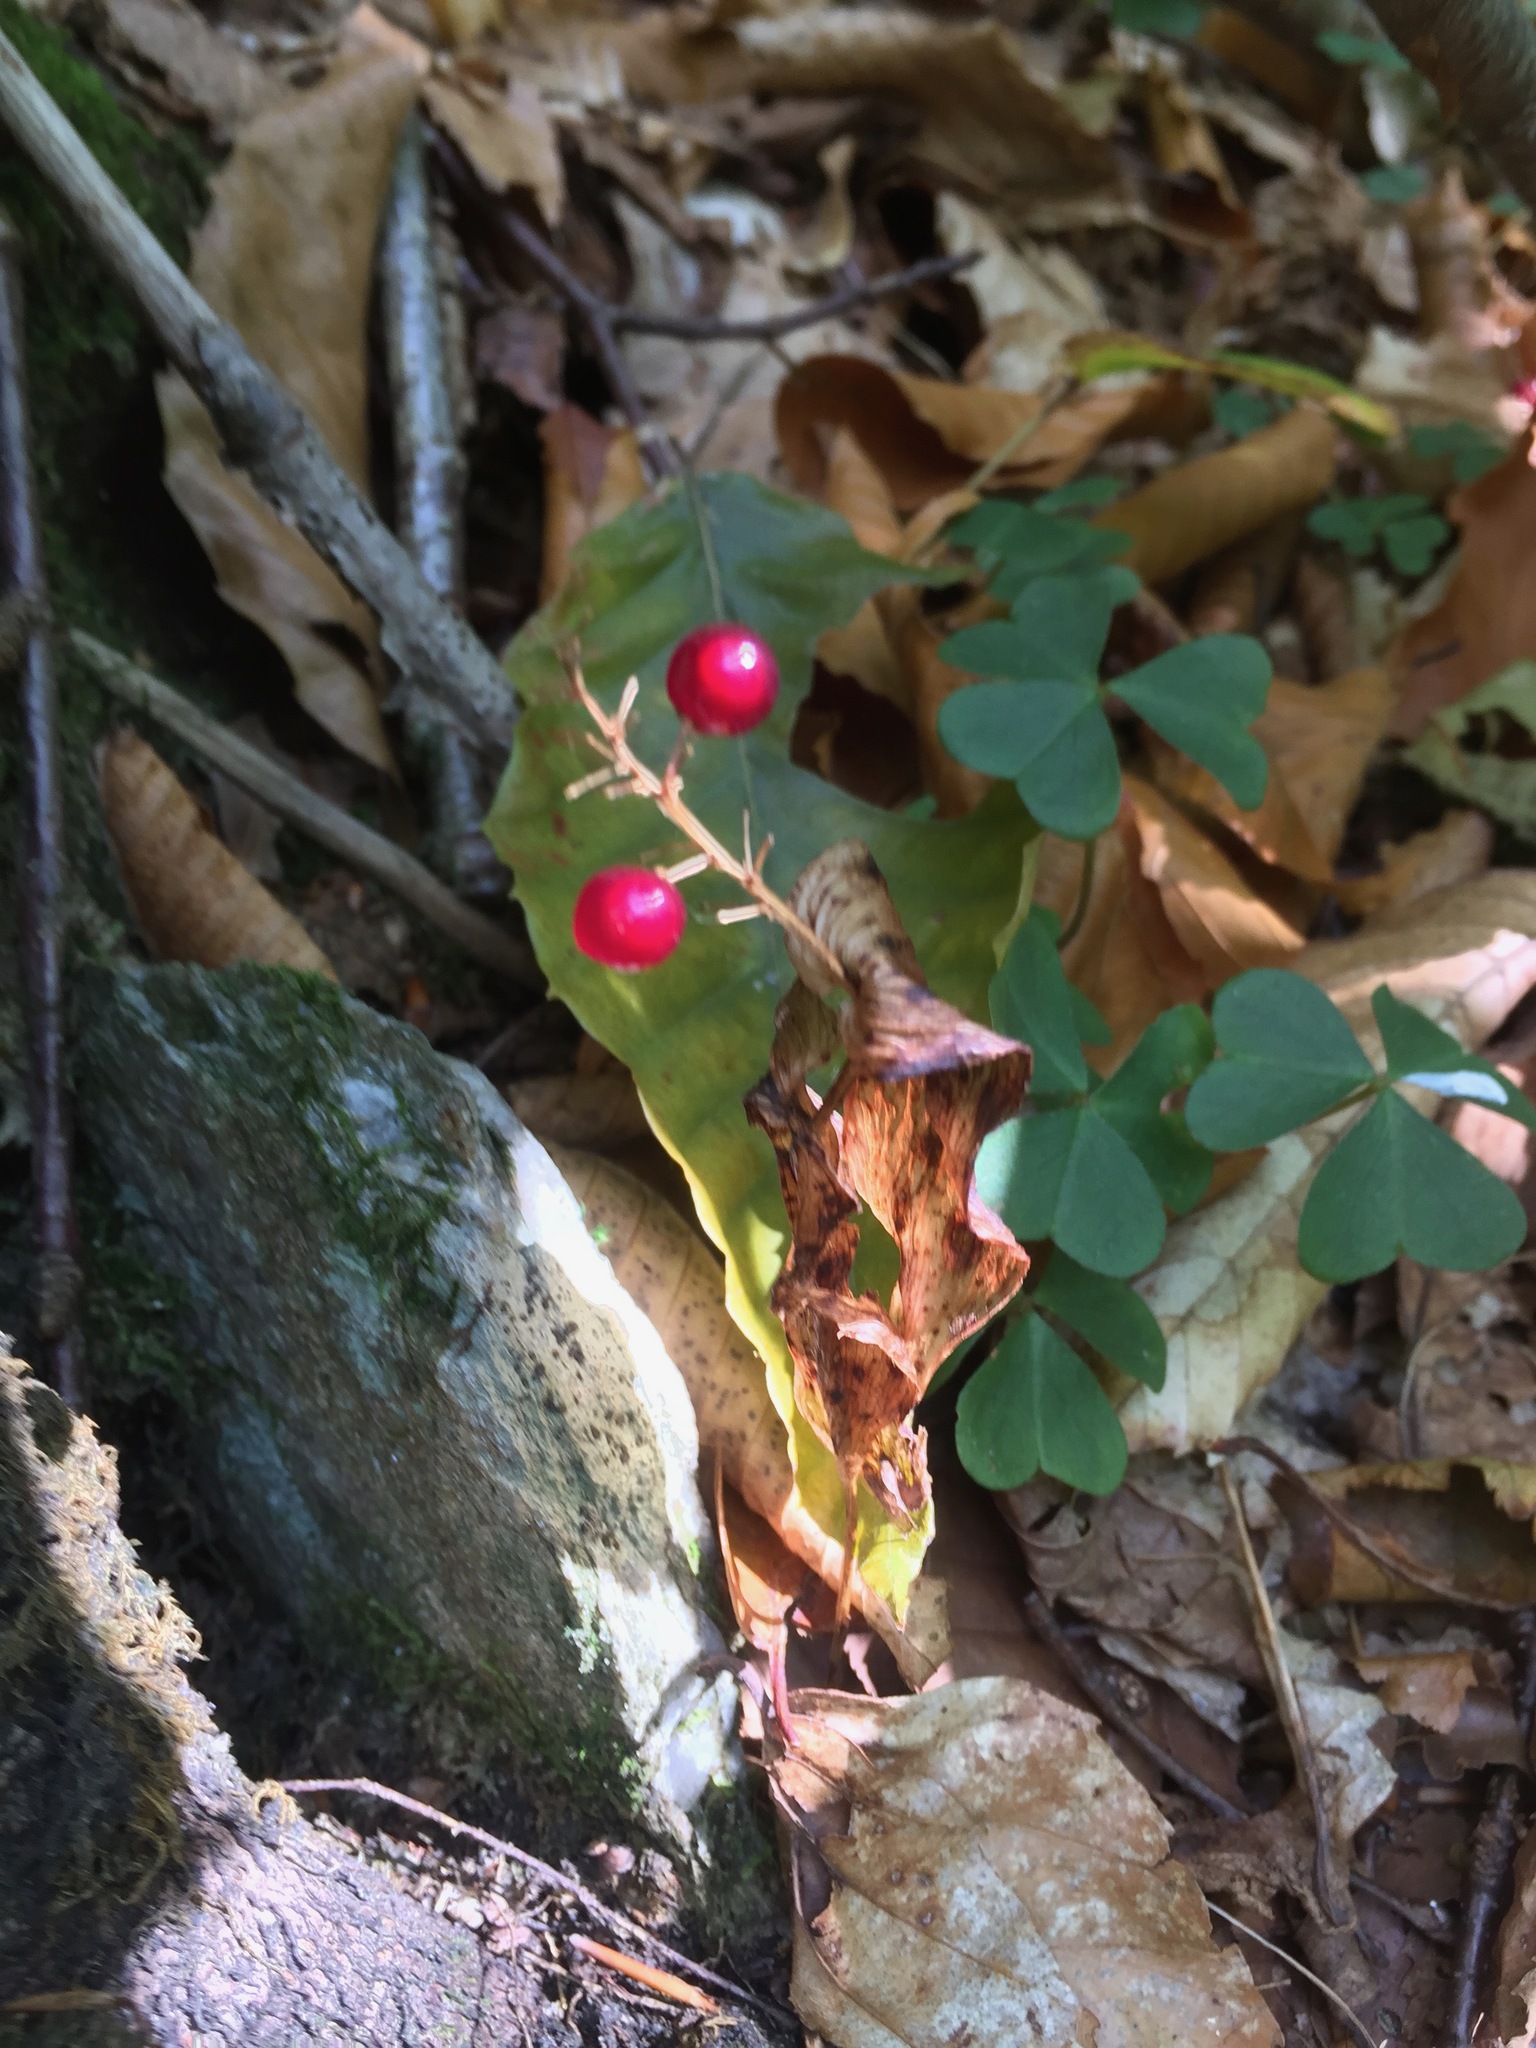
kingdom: Plantae
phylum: Tracheophyta
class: Liliopsida
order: Asparagales
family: Asparagaceae
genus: Maianthemum
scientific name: Maianthemum canadense
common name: False lily-of-the-valley
